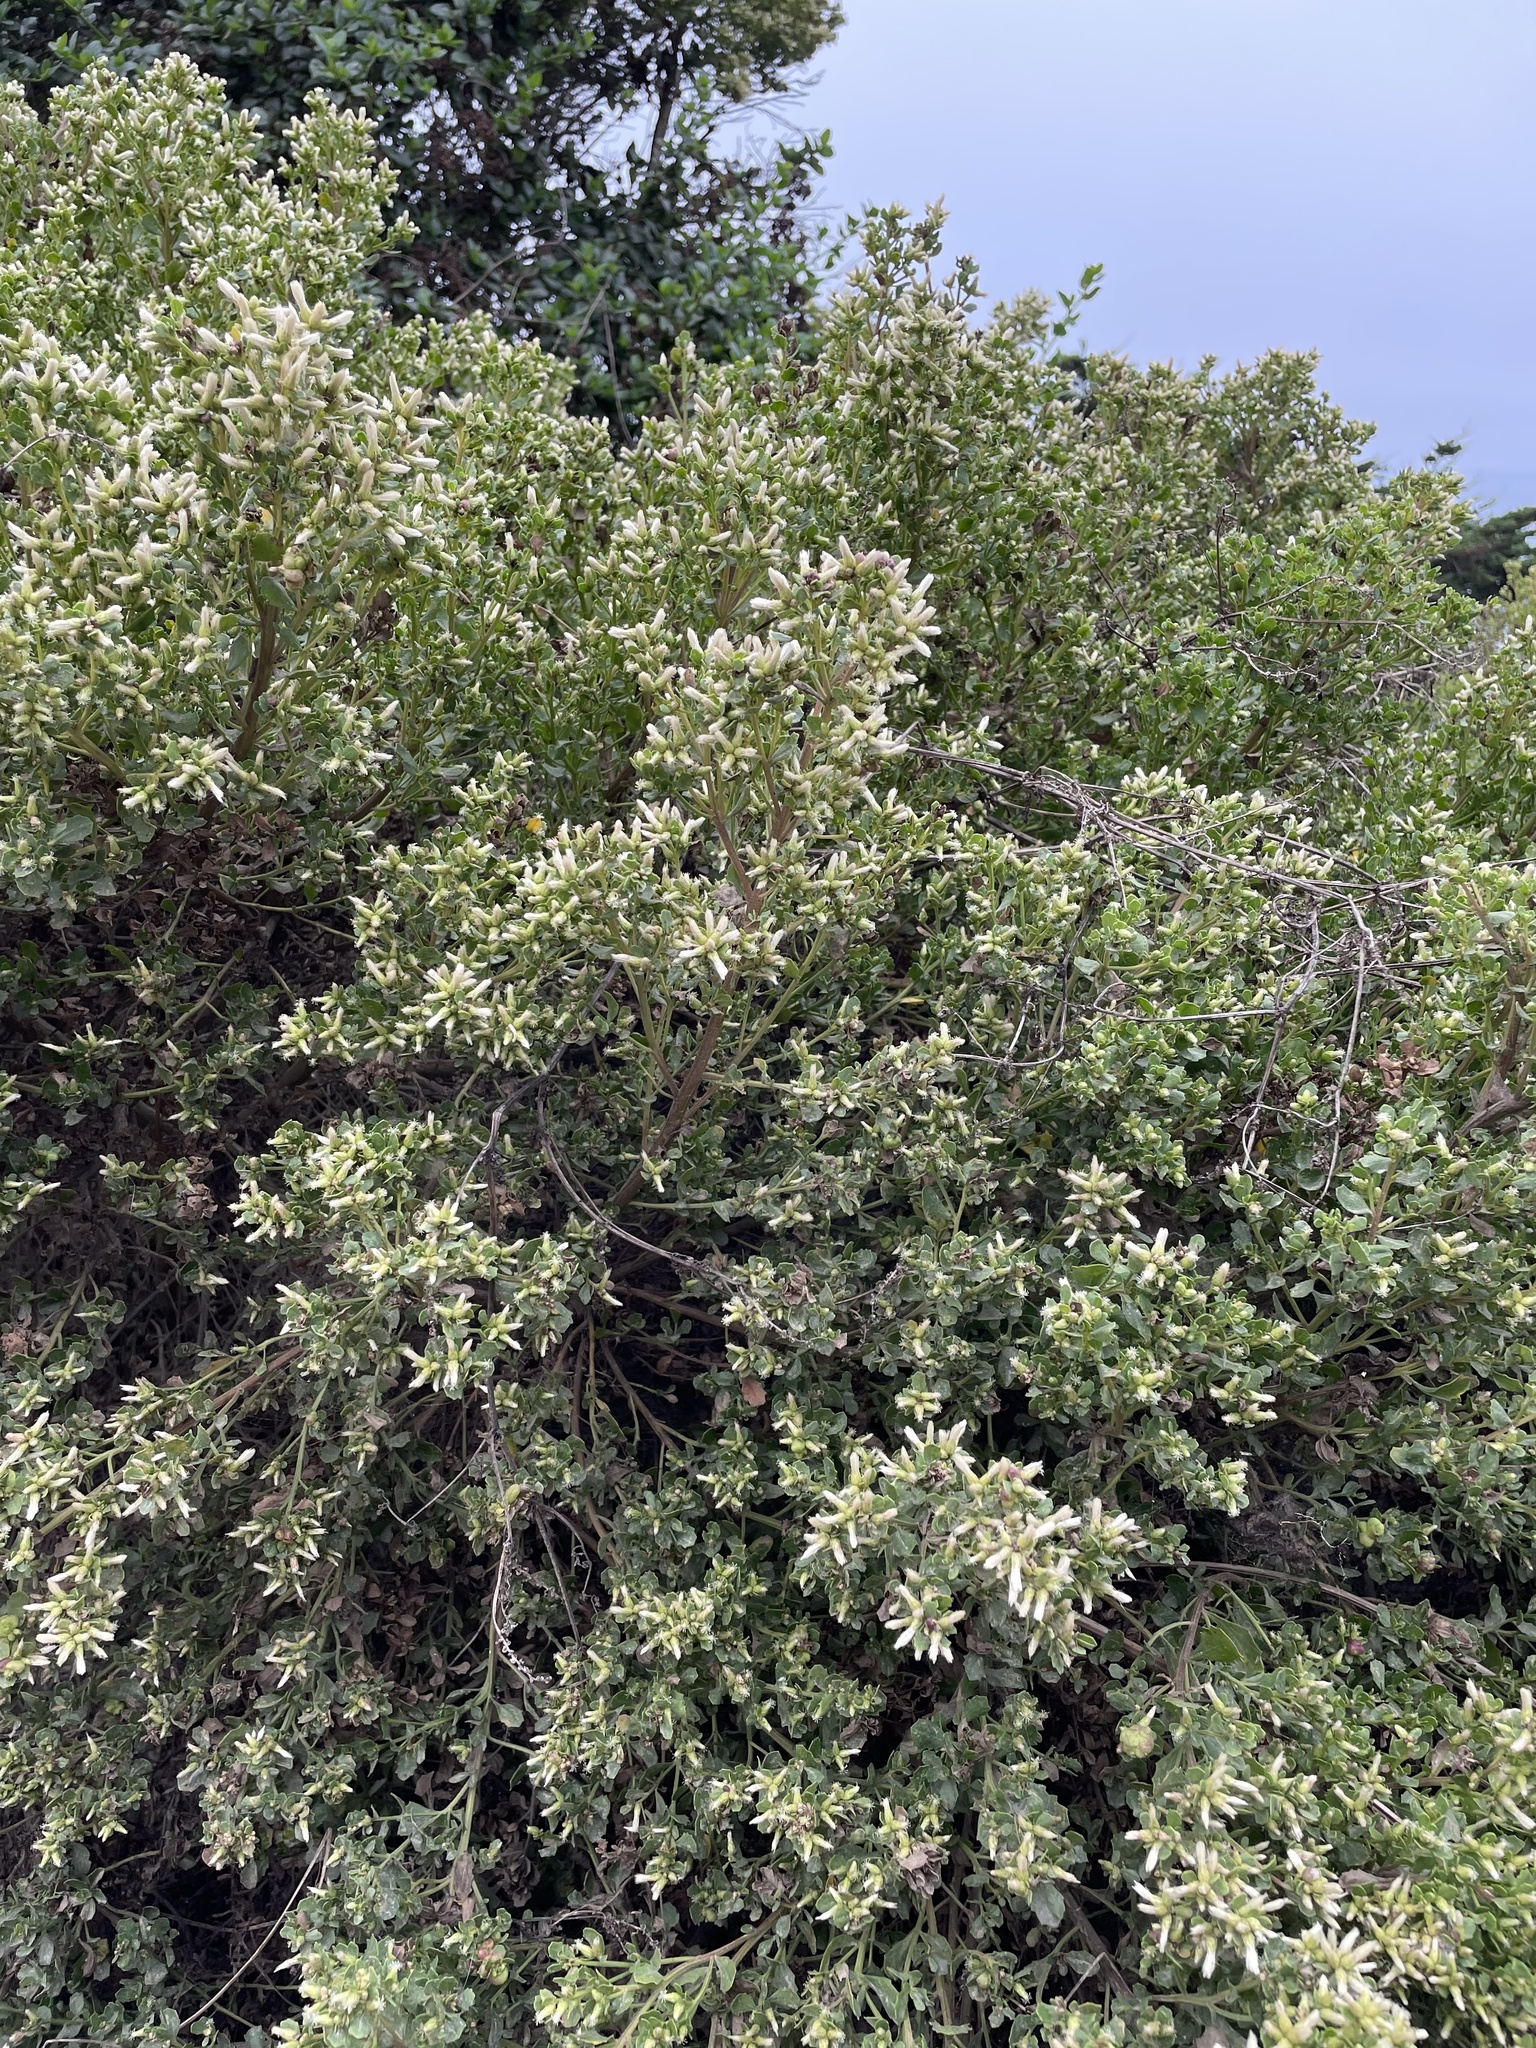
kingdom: Plantae
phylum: Tracheophyta
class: Magnoliopsida
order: Asterales
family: Asteraceae
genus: Baccharis
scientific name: Baccharis pilularis
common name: Coyotebrush
